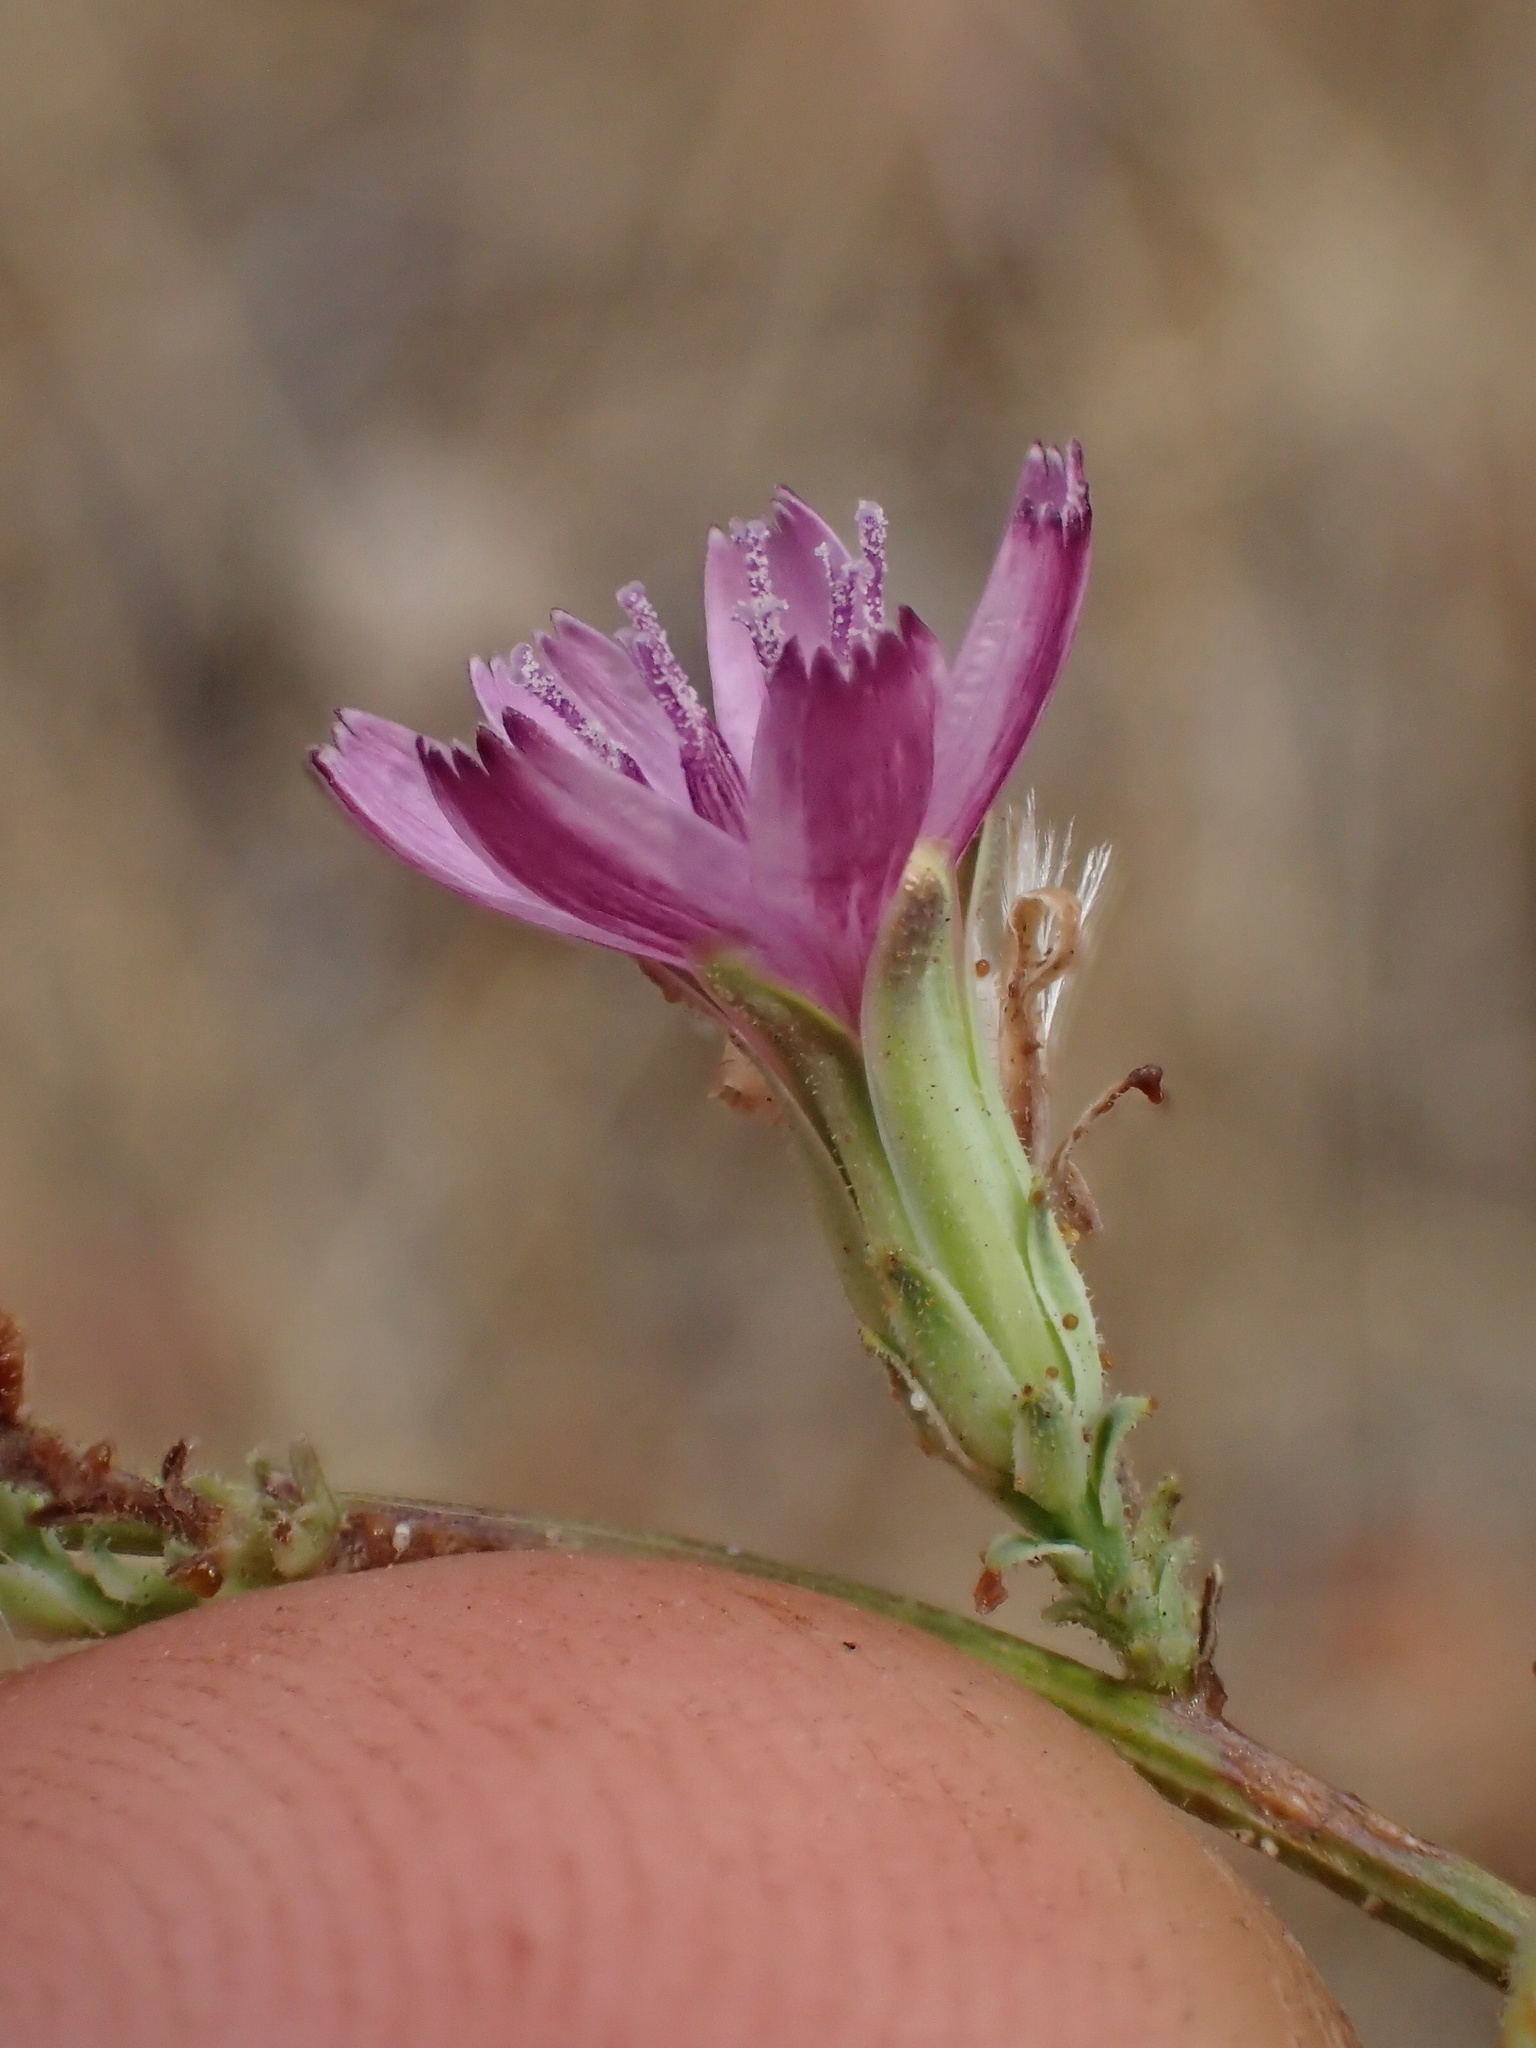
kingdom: Plantae
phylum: Tracheophyta
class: Magnoliopsida
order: Asterales
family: Asteraceae
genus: Stephanomeria
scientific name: Stephanomeria exigua
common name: Small wirelettuce
